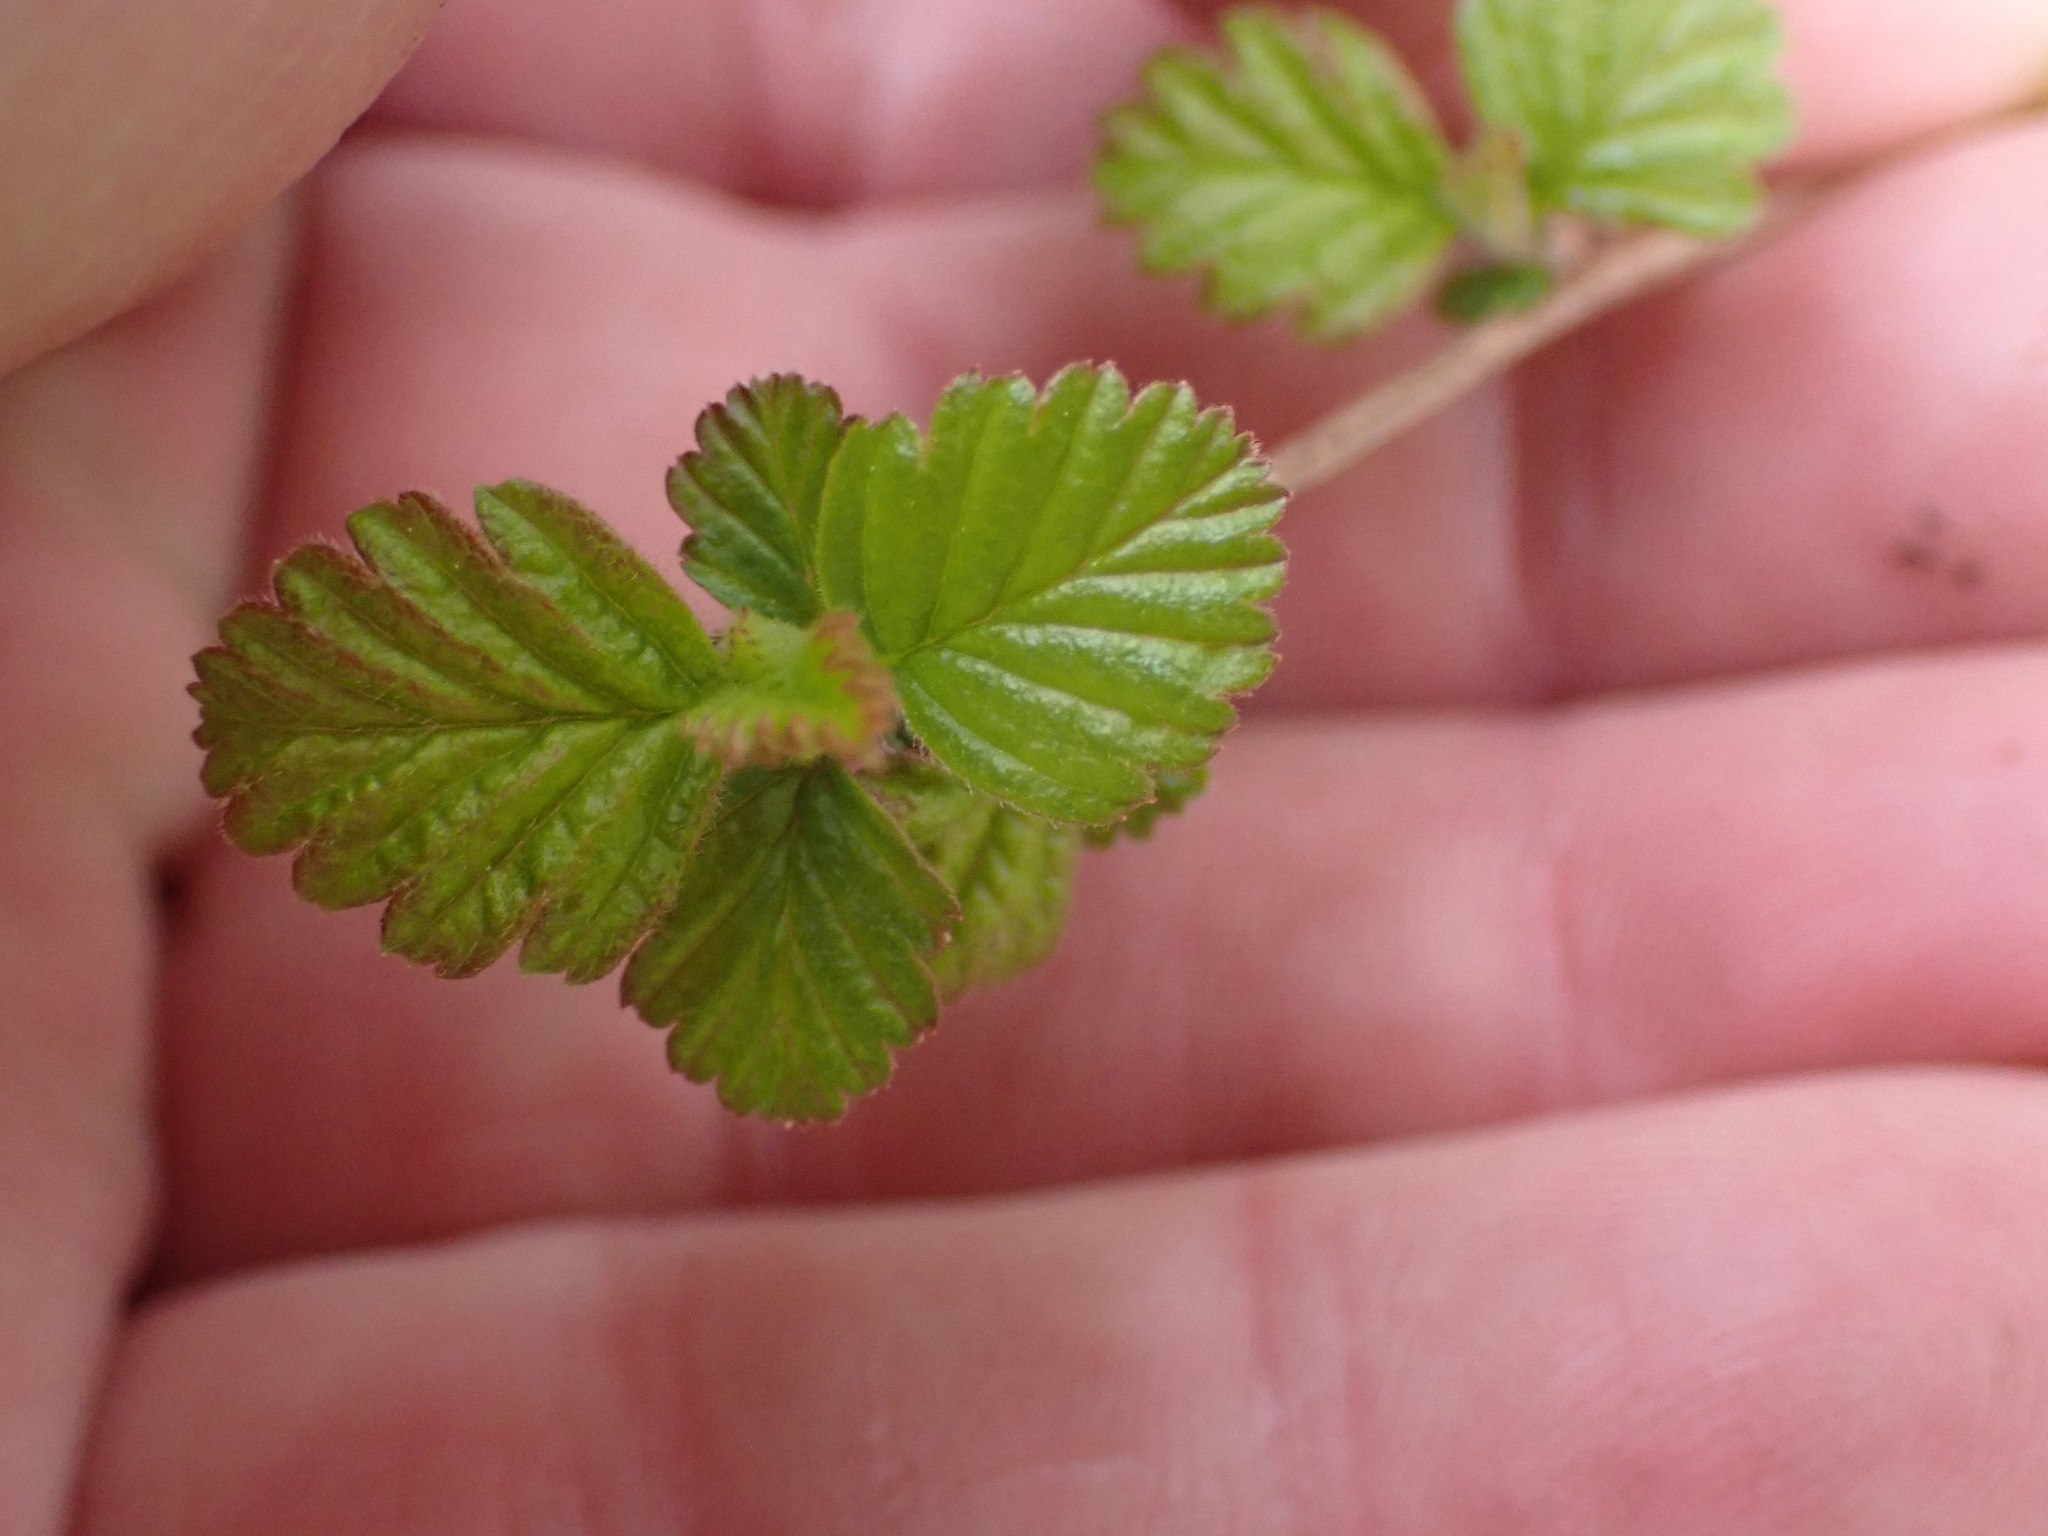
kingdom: Plantae
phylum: Tracheophyta
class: Magnoliopsida
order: Rosales
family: Rosaceae
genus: Holodiscus
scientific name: Holodiscus discolor
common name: Oceanspray
